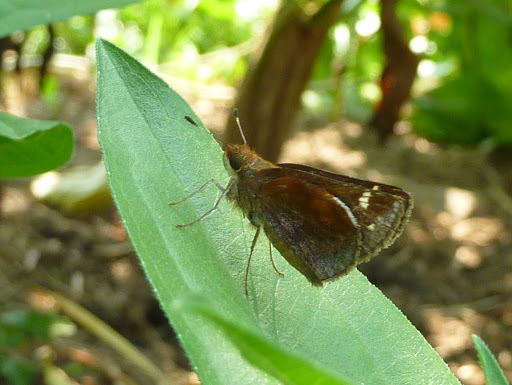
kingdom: Animalia
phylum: Arthropoda
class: Insecta
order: Lepidoptera
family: Hesperiidae
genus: Lon
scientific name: Lon zabulon
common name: Zabulon skipper
